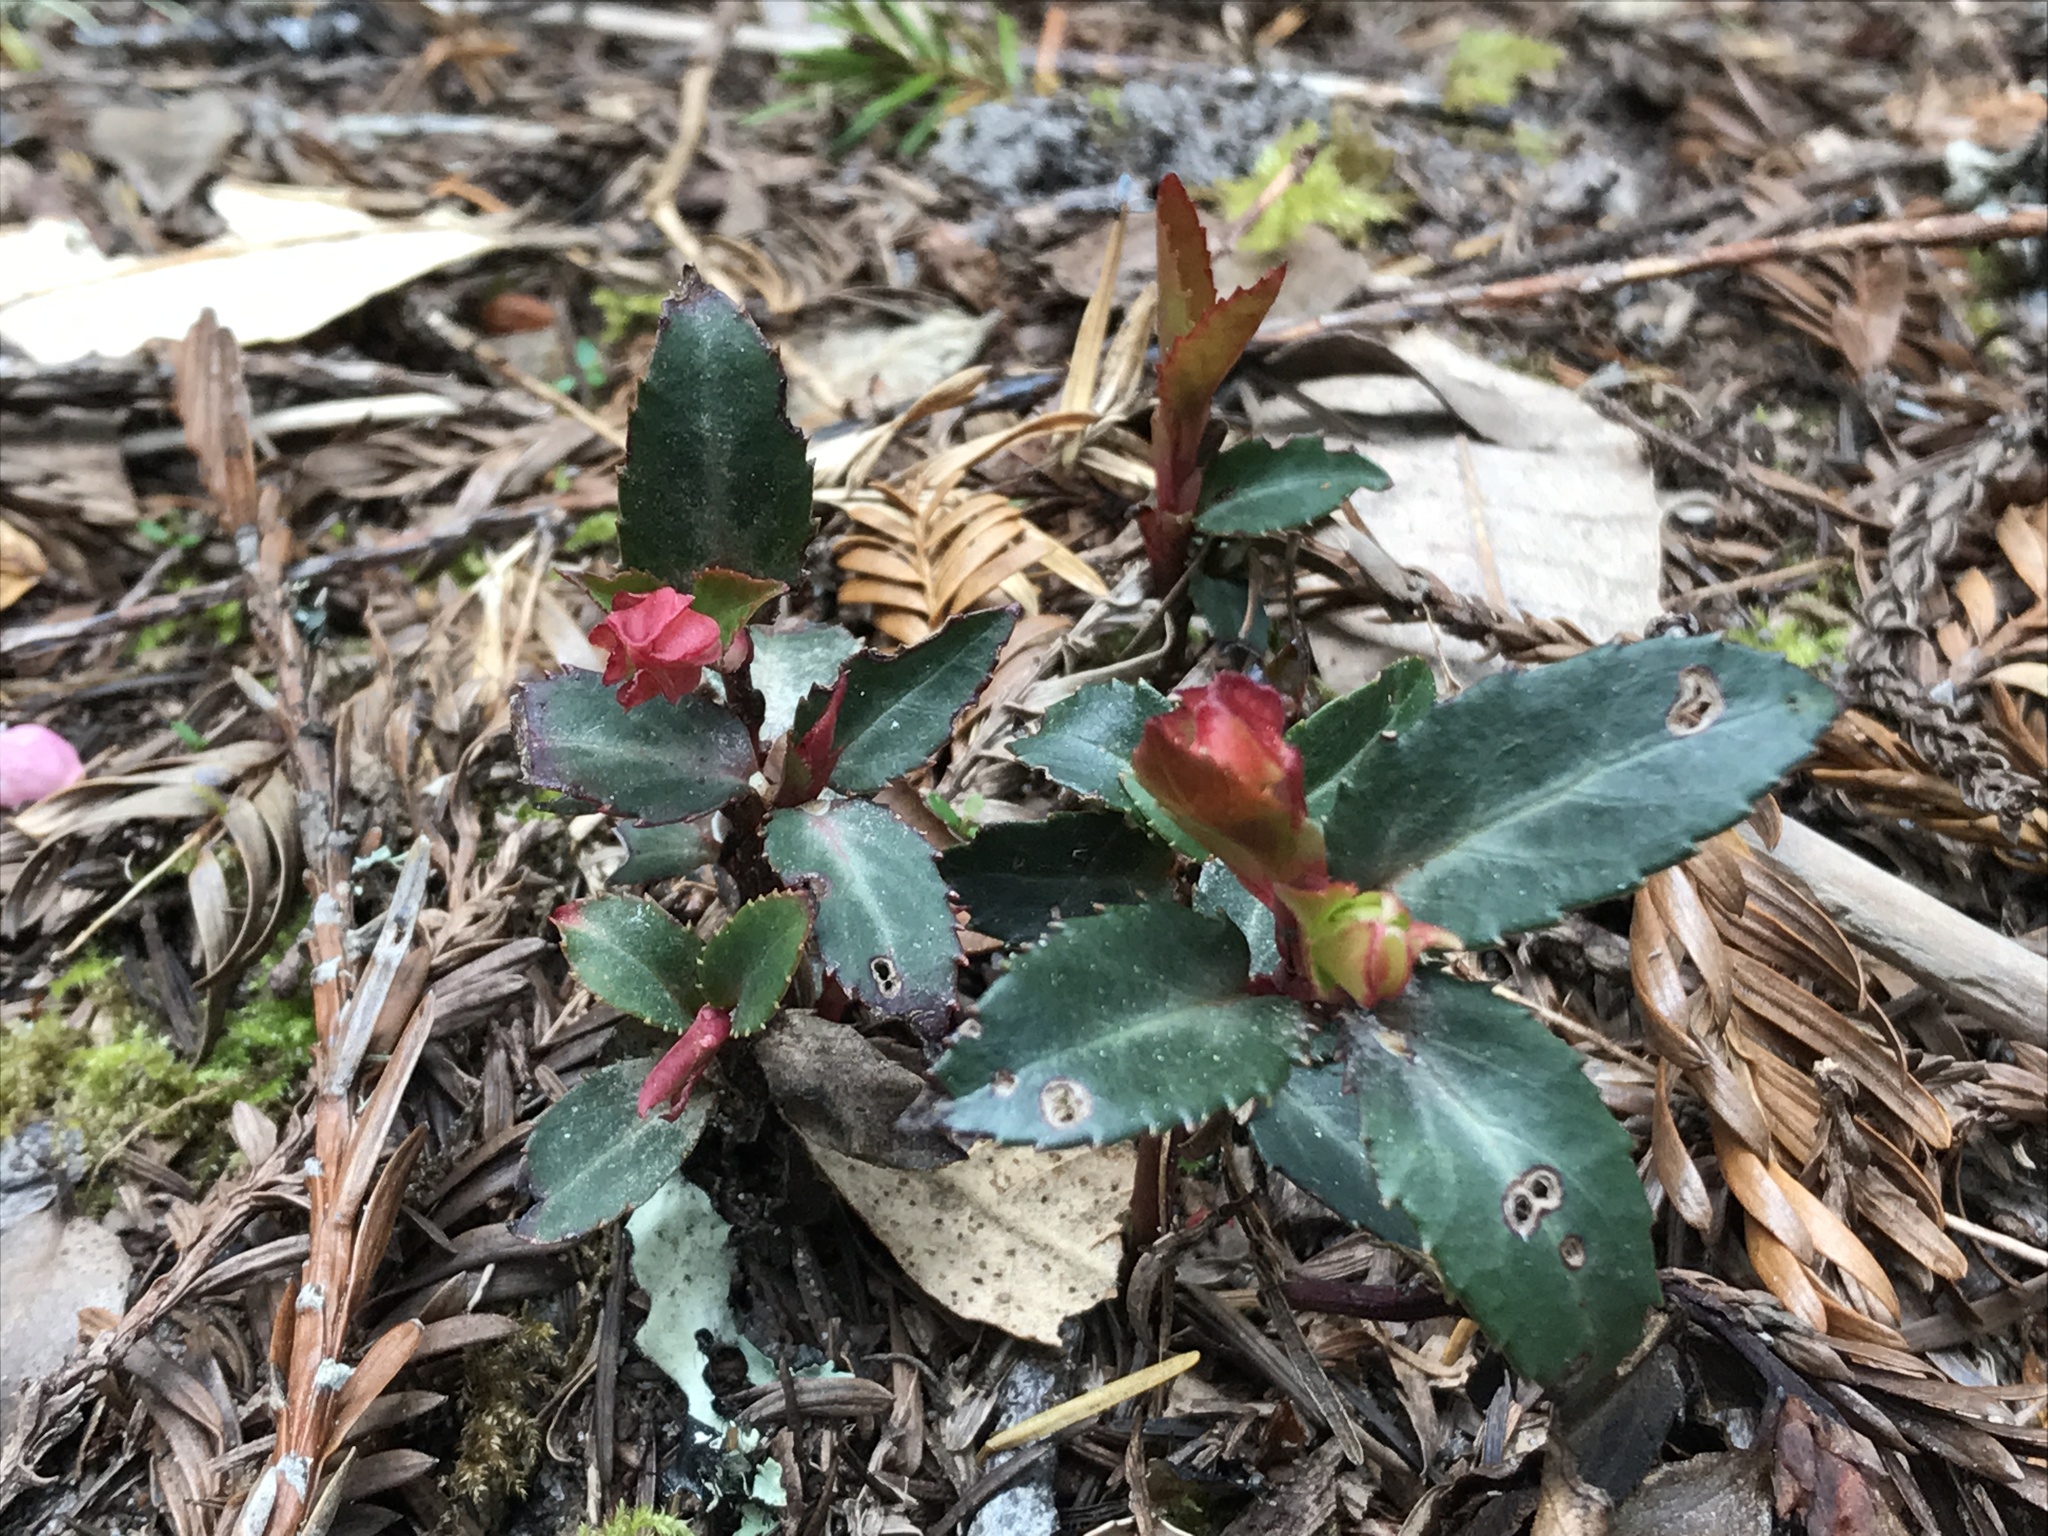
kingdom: Plantae
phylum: Tracheophyta
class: Magnoliopsida
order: Ericales
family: Ericaceae
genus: Chimaphila
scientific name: Chimaphila menziesii
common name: Menzies' pipsissewa
